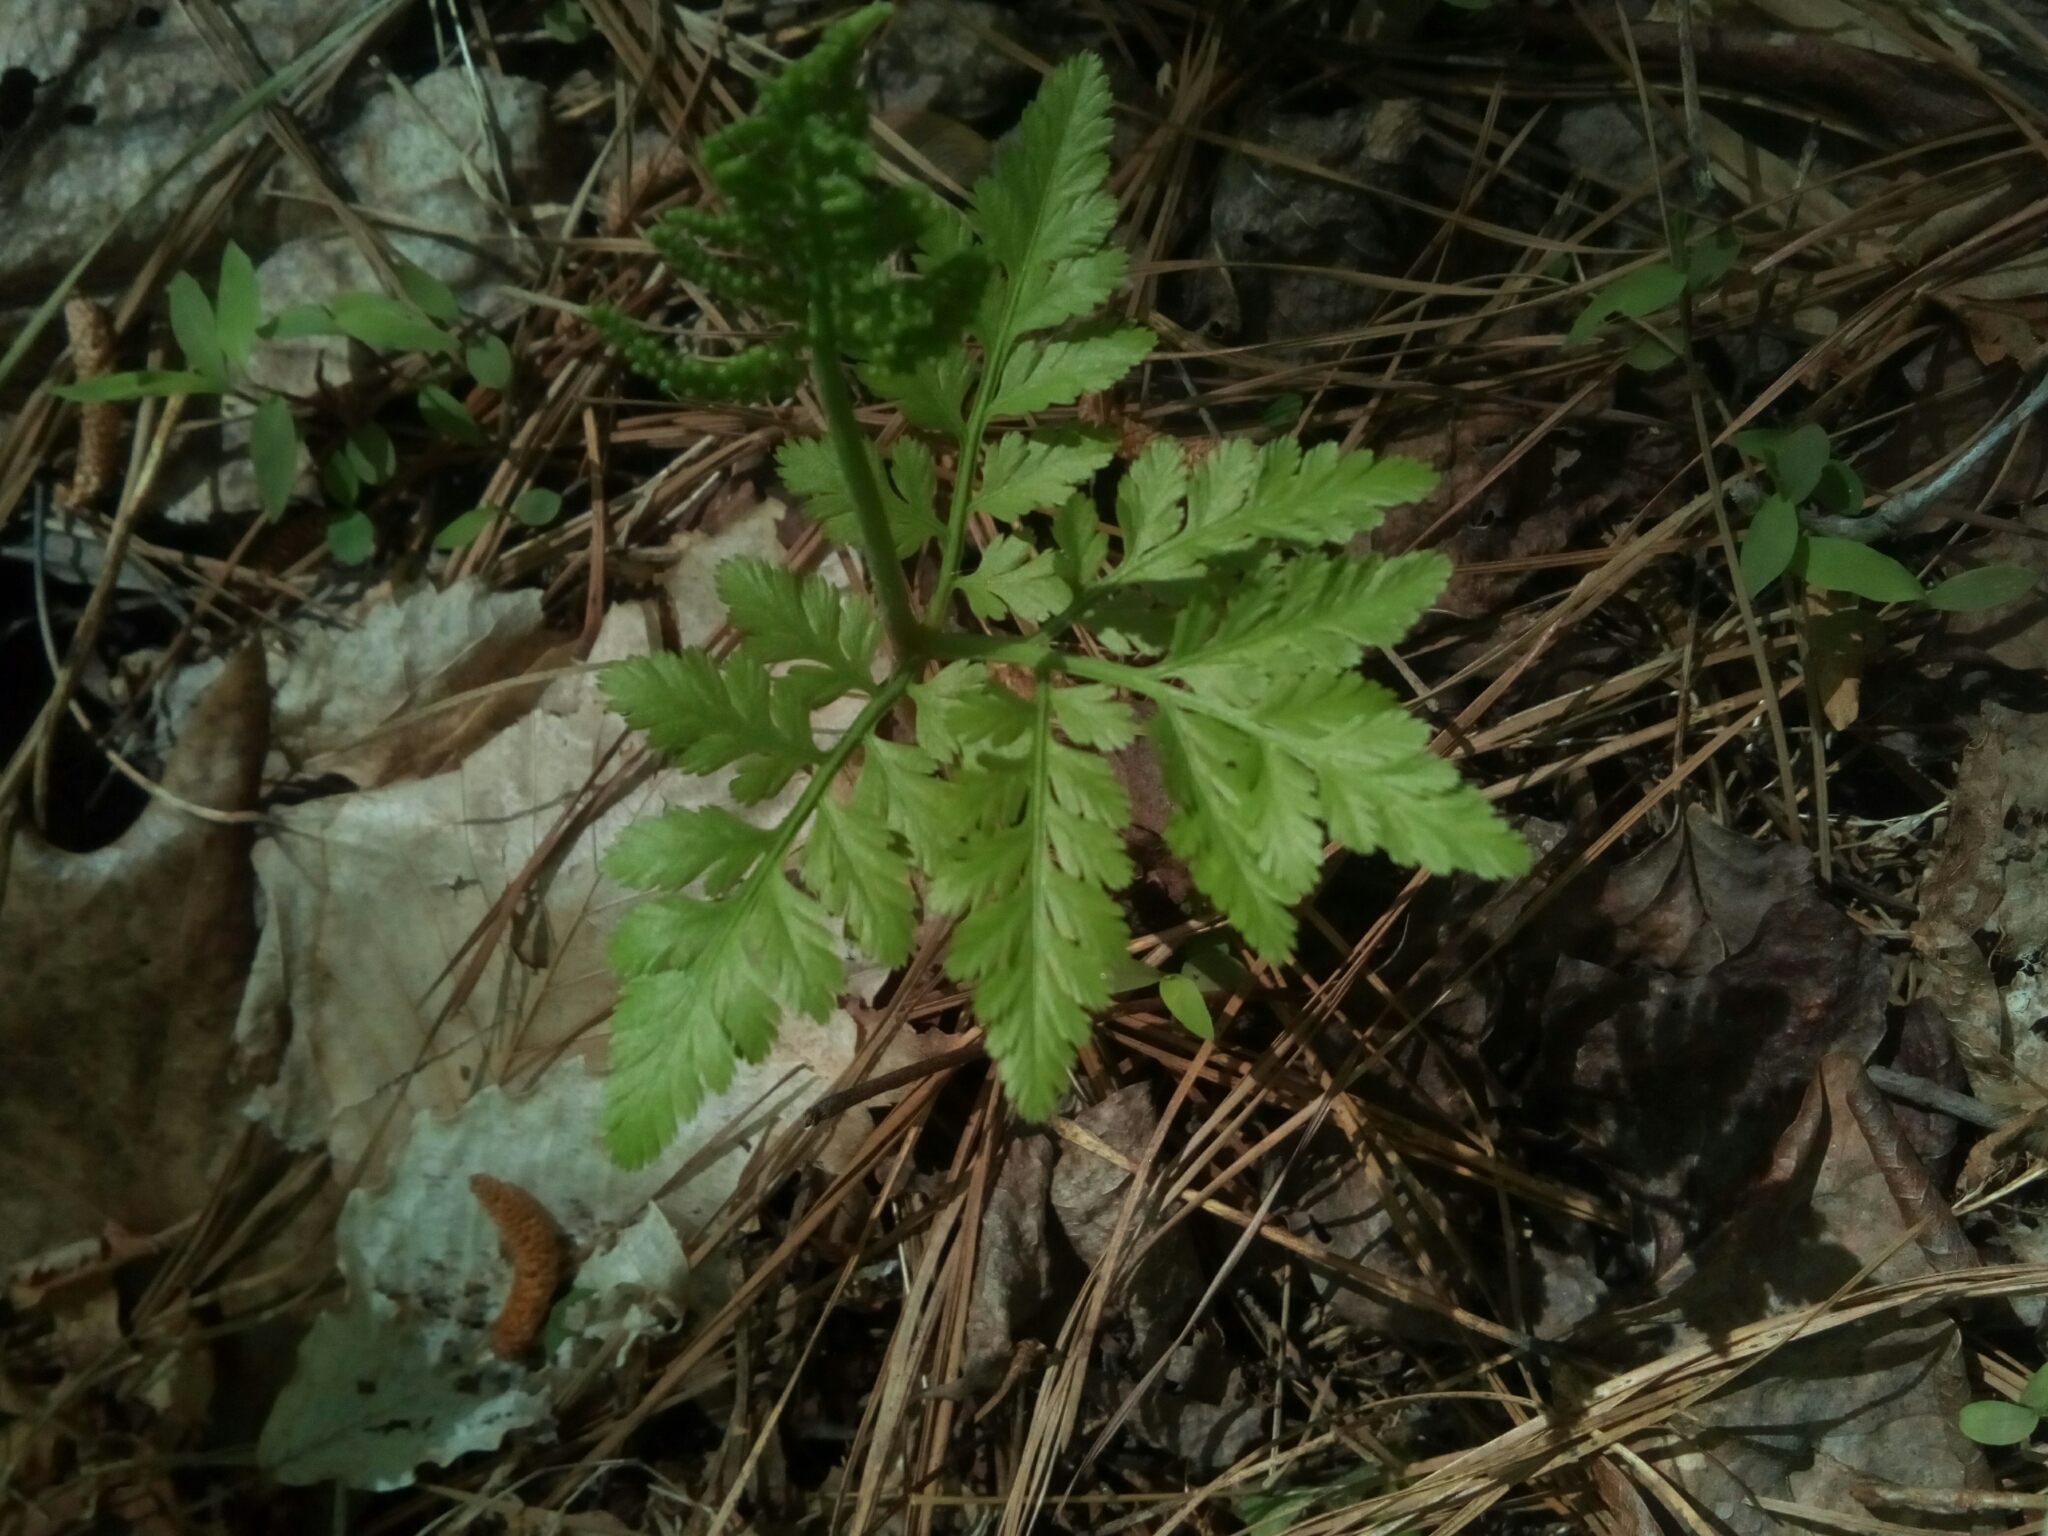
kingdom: Plantae
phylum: Tracheophyta
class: Polypodiopsida
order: Ophioglossales
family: Ophioglossaceae
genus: Botrypus
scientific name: Botrypus virginianus
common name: Common grapefern
